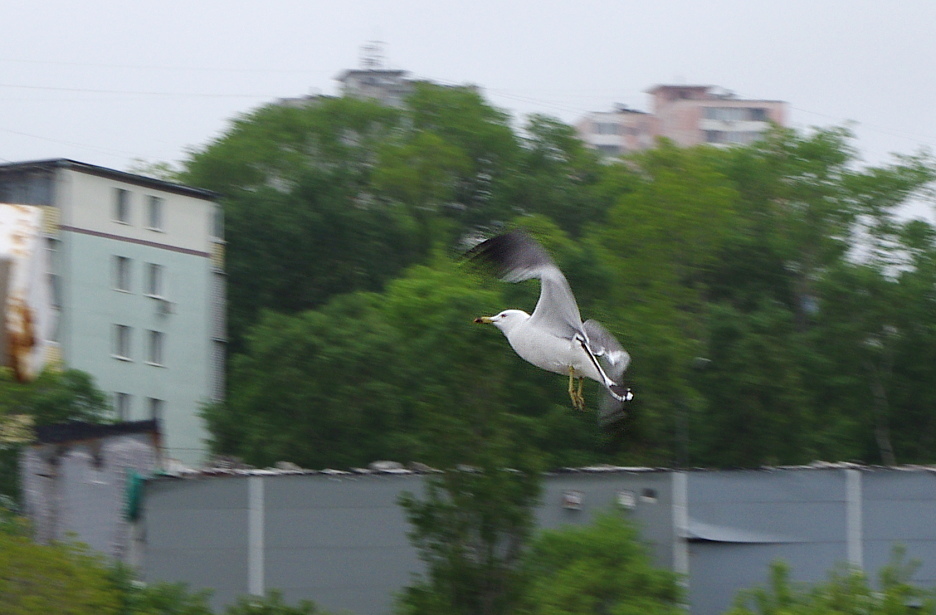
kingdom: Animalia
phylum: Chordata
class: Aves
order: Charadriiformes
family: Laridae
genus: Larus
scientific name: Larus crassirostris
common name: Black-tailed gull
